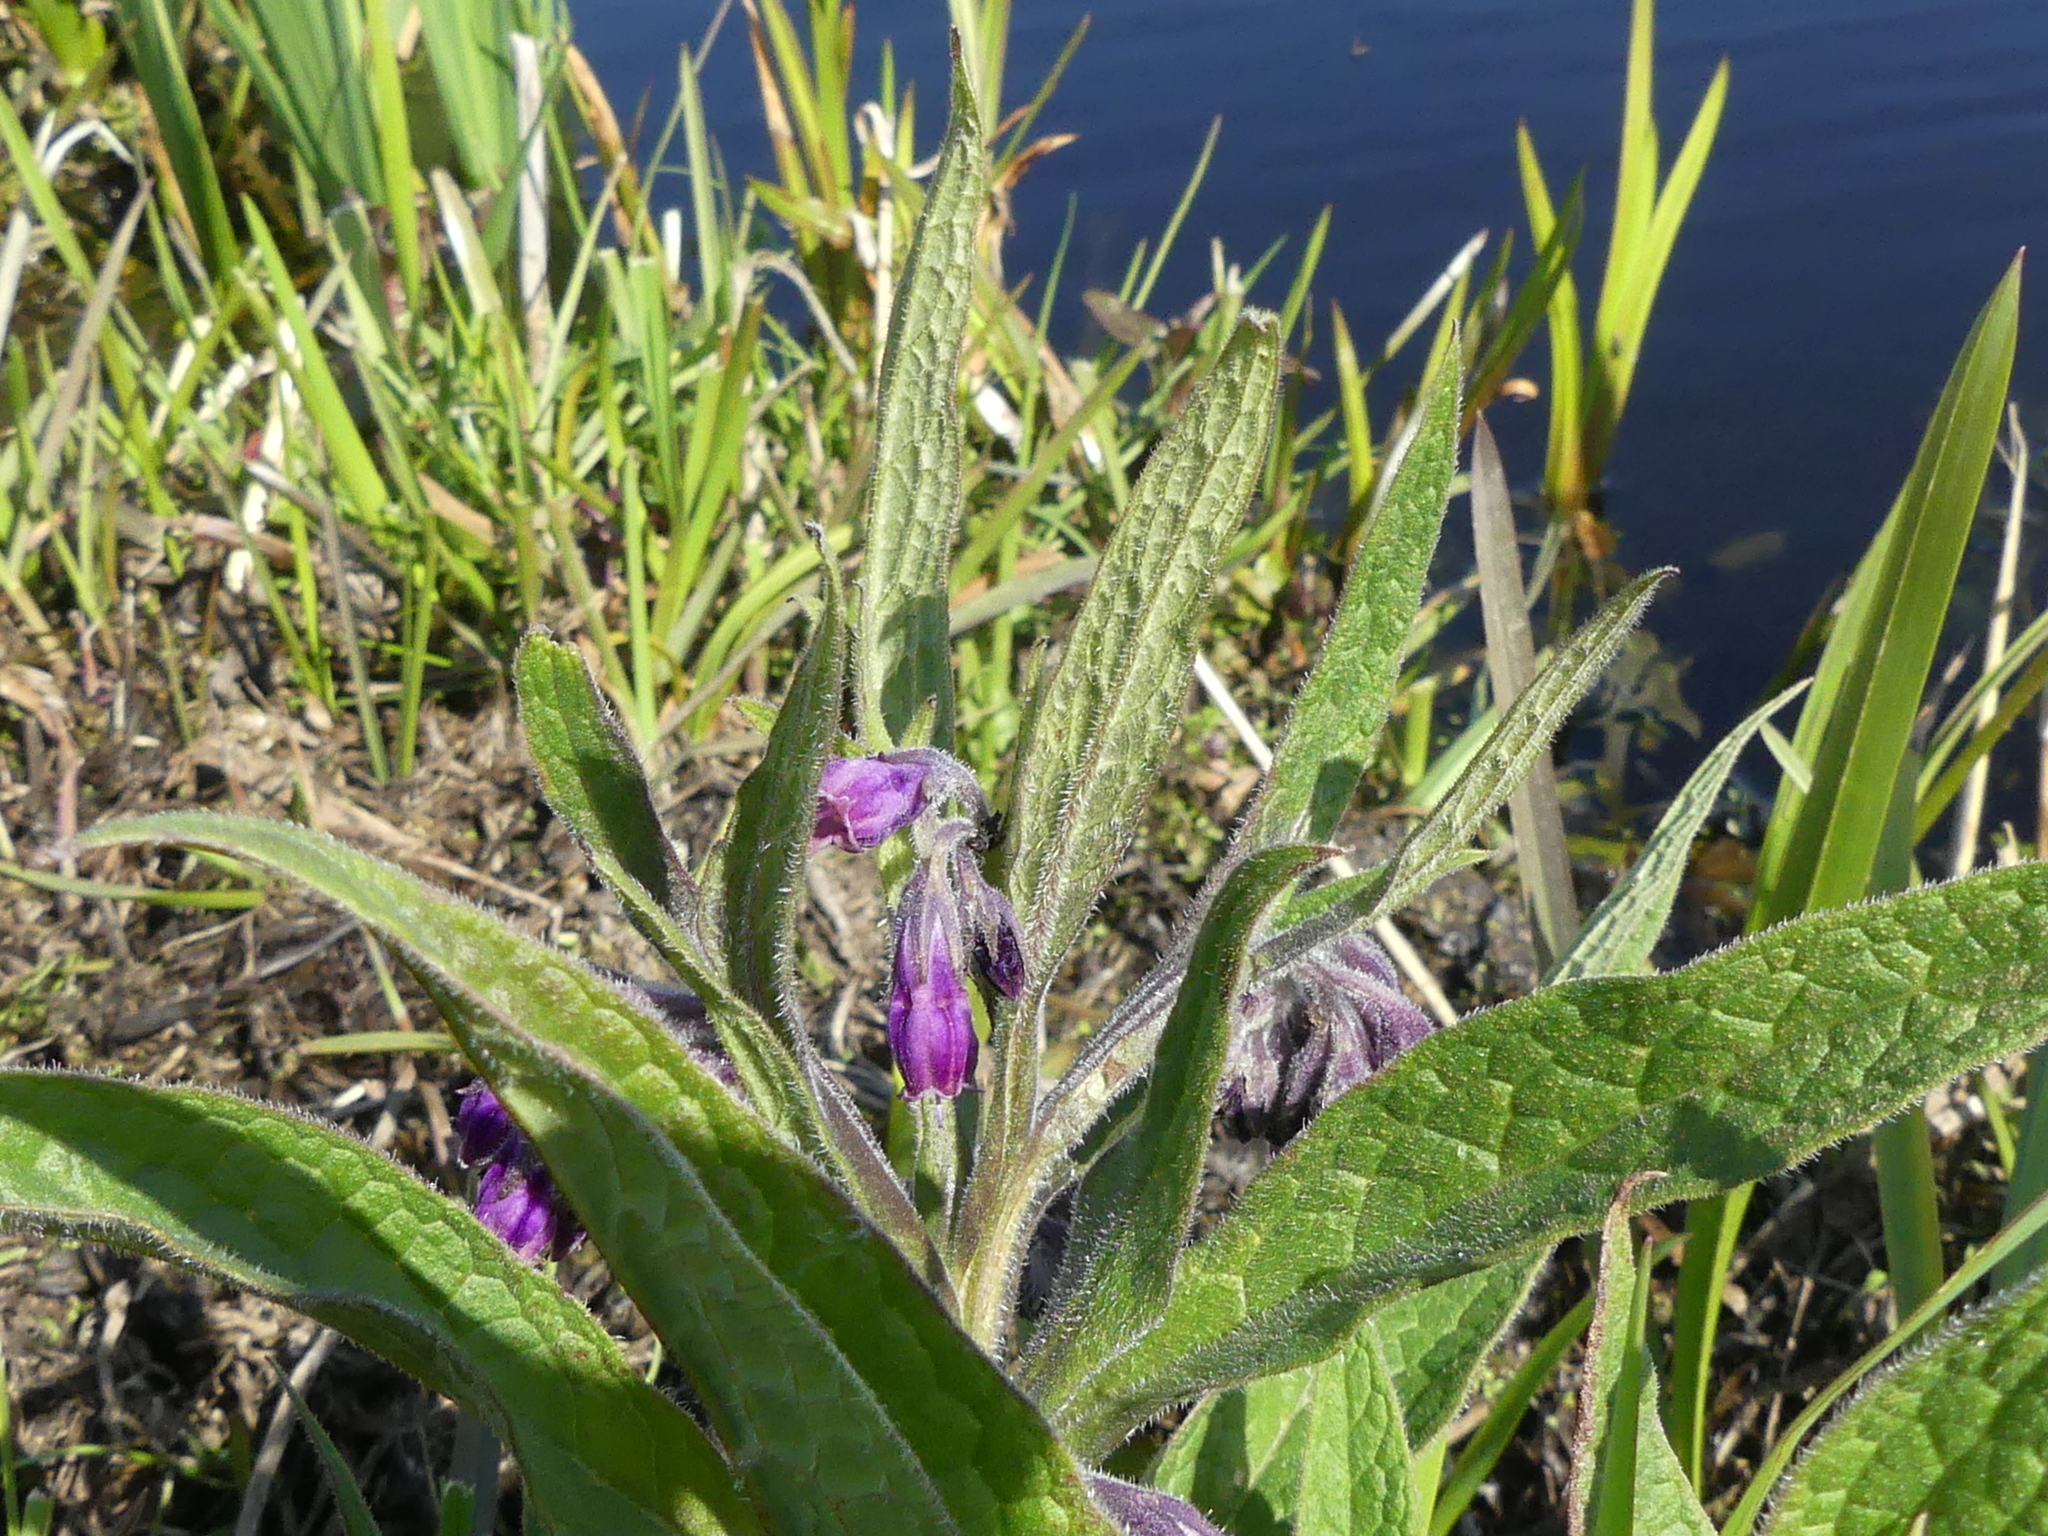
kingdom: Plantae
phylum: Tracheophyta
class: Magnoliopsida
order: Boraginales
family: Boraginaceae
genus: Symphytum
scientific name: Symphytum officinale
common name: Common comfrey
